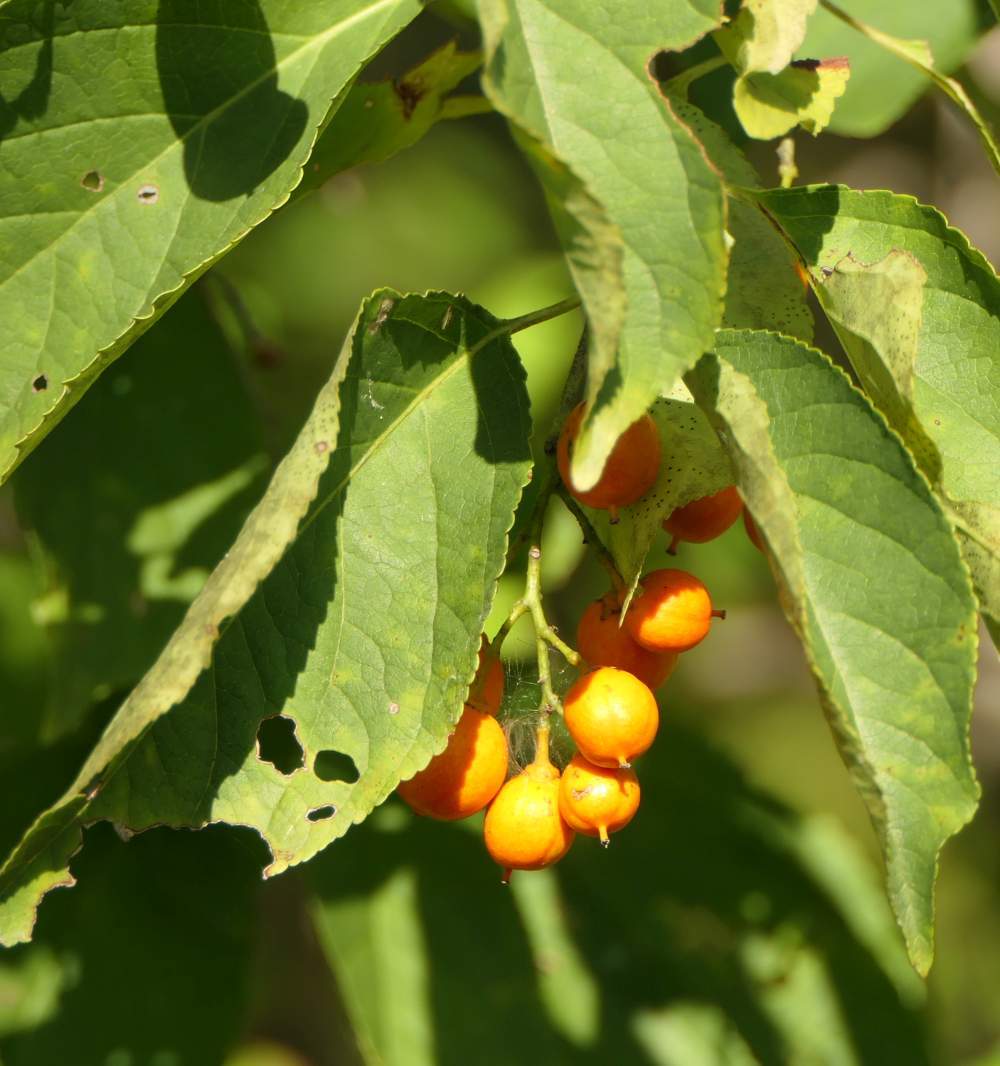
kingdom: Plantae
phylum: Tracheophyta
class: Magnoliopsida
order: Celastrales
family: Celastraceae
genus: Celastrus
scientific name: Celastrus scandens
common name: American bittersweet
